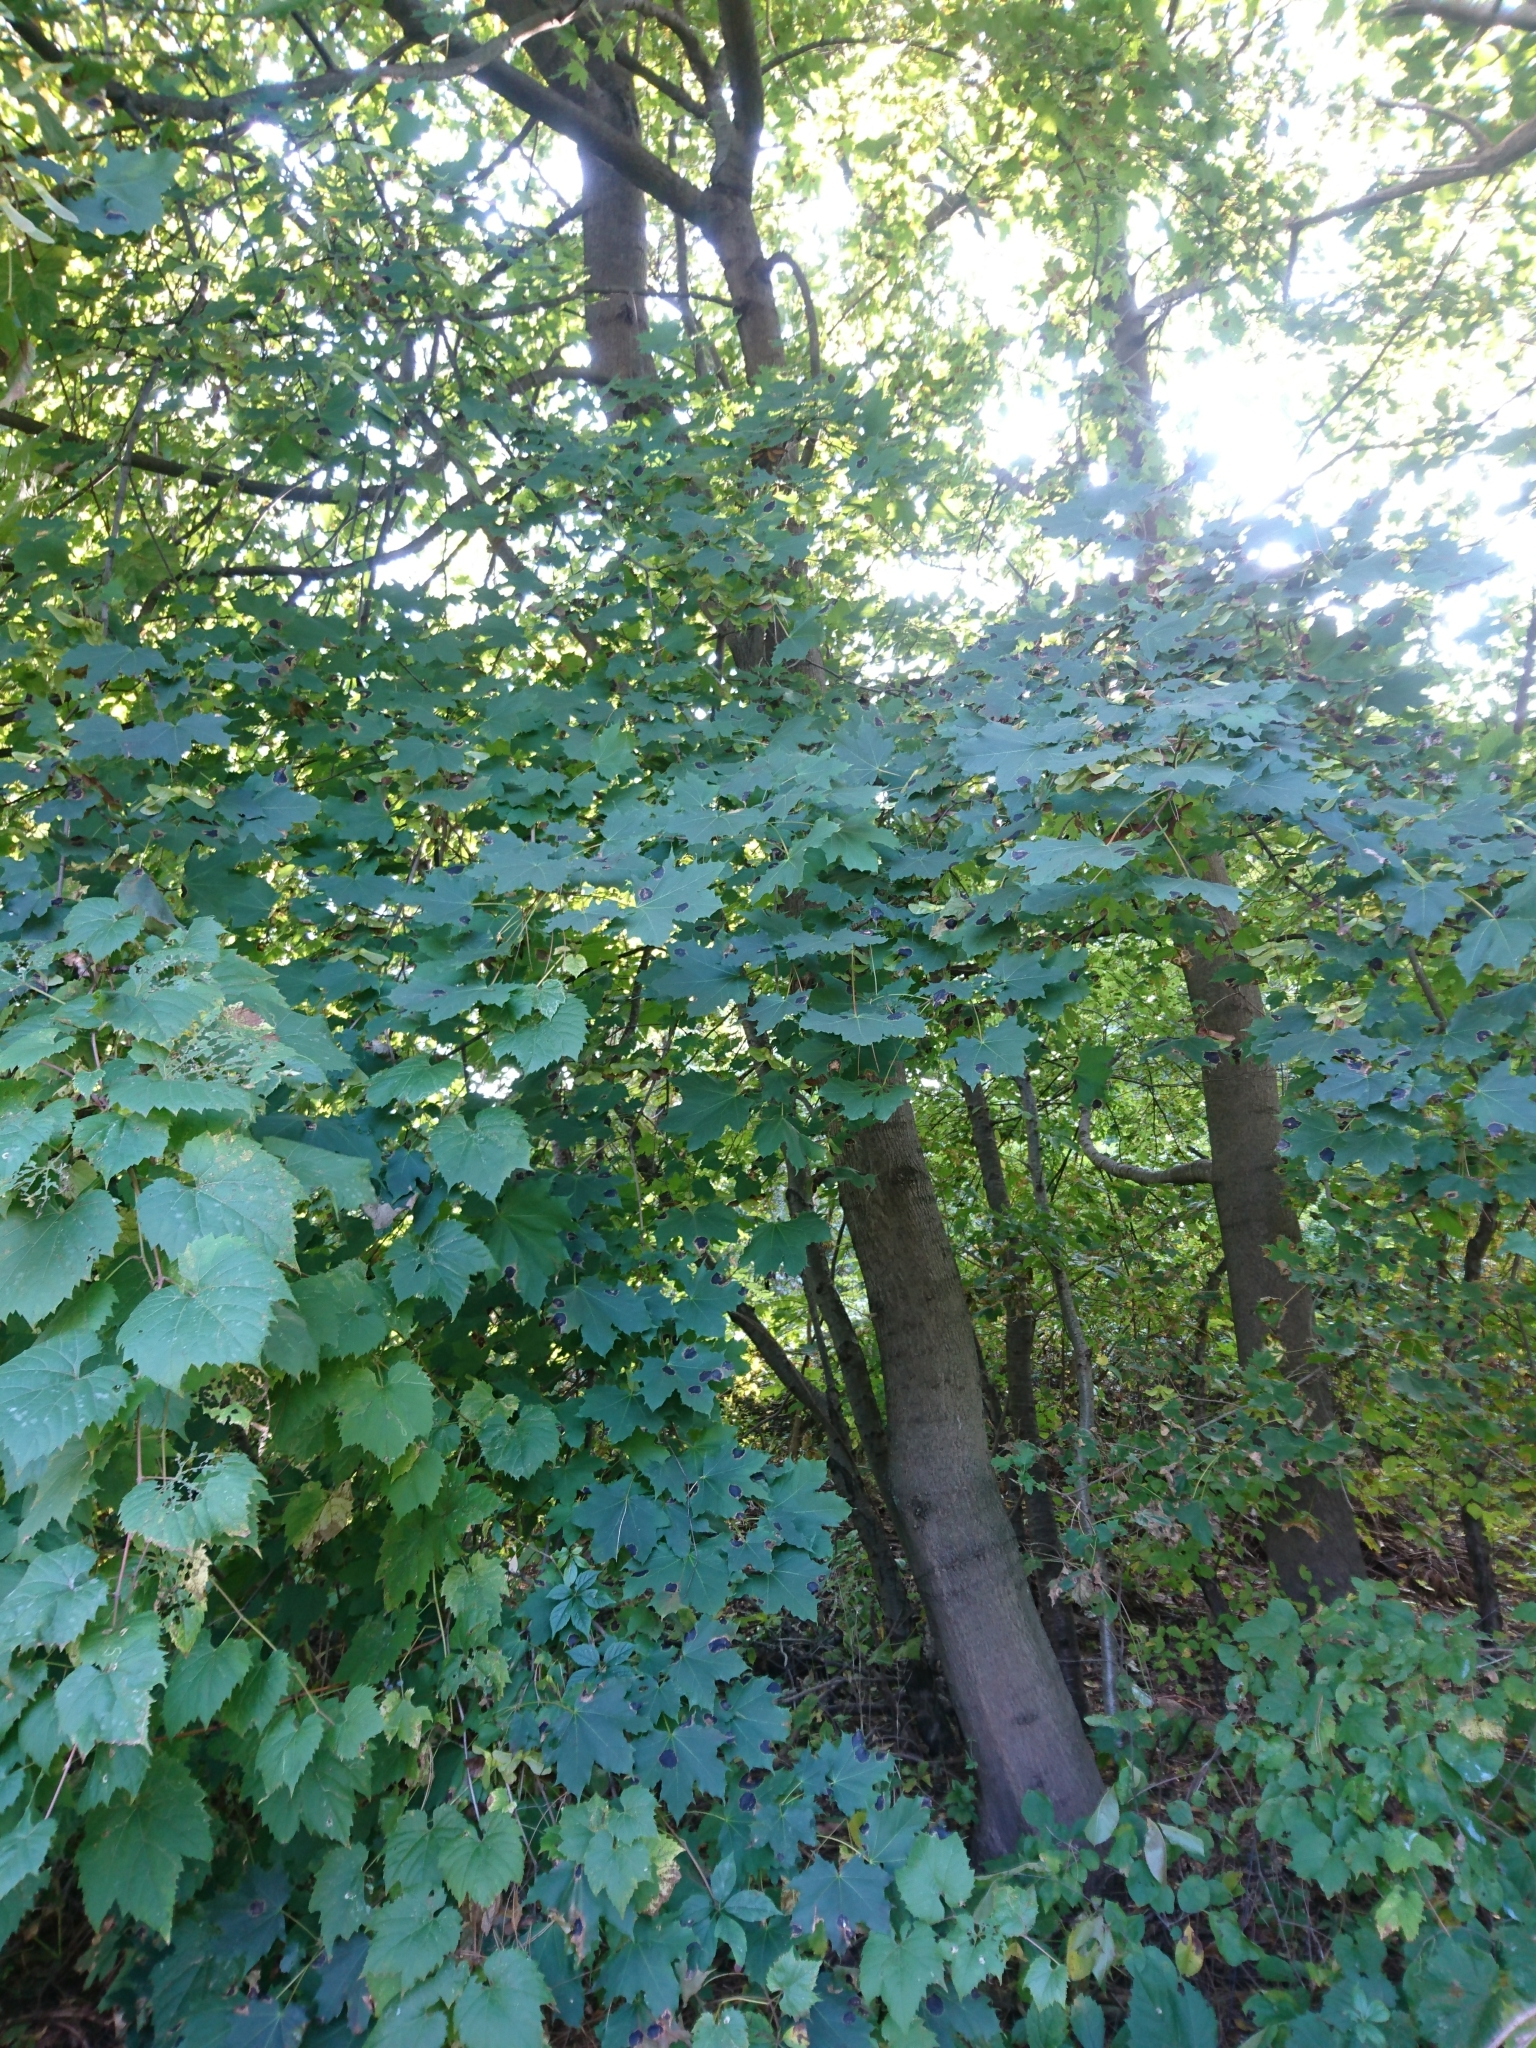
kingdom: Fungi
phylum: Ascomycota
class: Leotiomycetes
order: Rhytismatales
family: Rhytismataceae
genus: Rhytisma
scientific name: Rhytisma acerinum
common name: European tar spot
